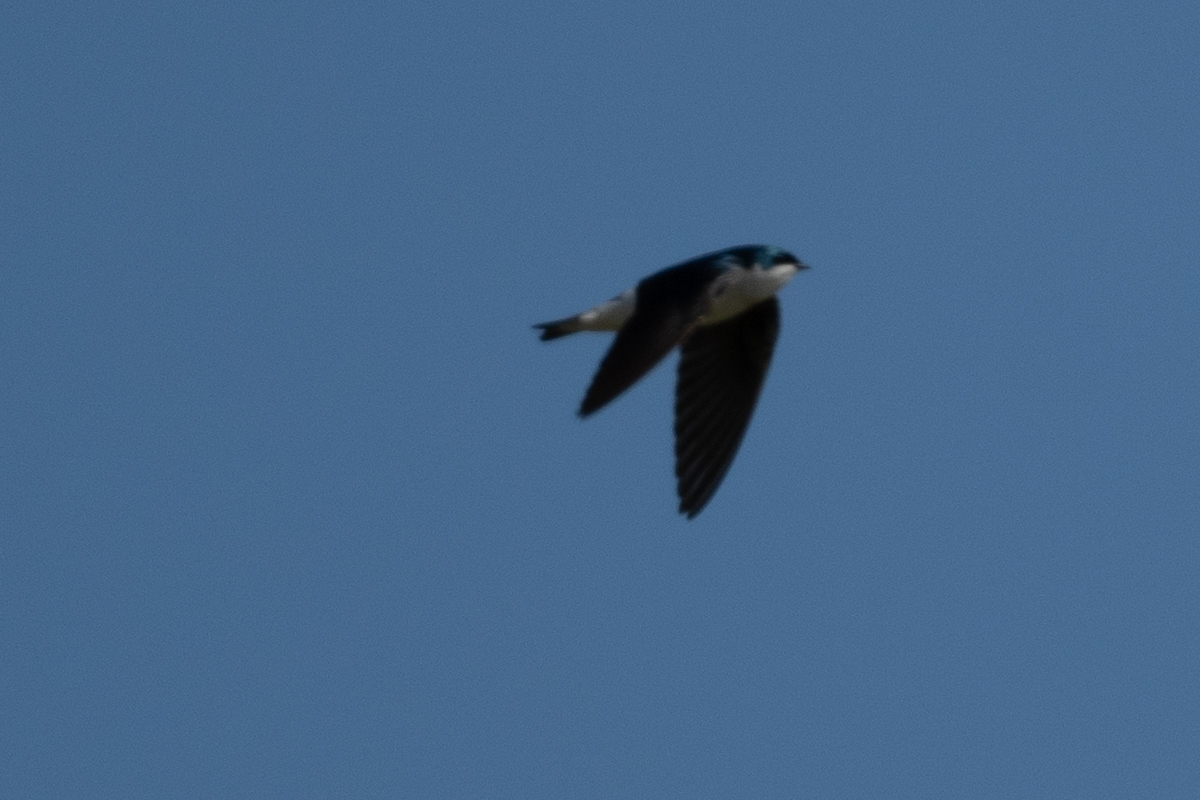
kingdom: Animalia
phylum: Chordata
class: Aves
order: Passeriformes
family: Hirundinidae
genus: Tachycineta
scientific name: Tachycineta bicolor
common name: Tree swallow
